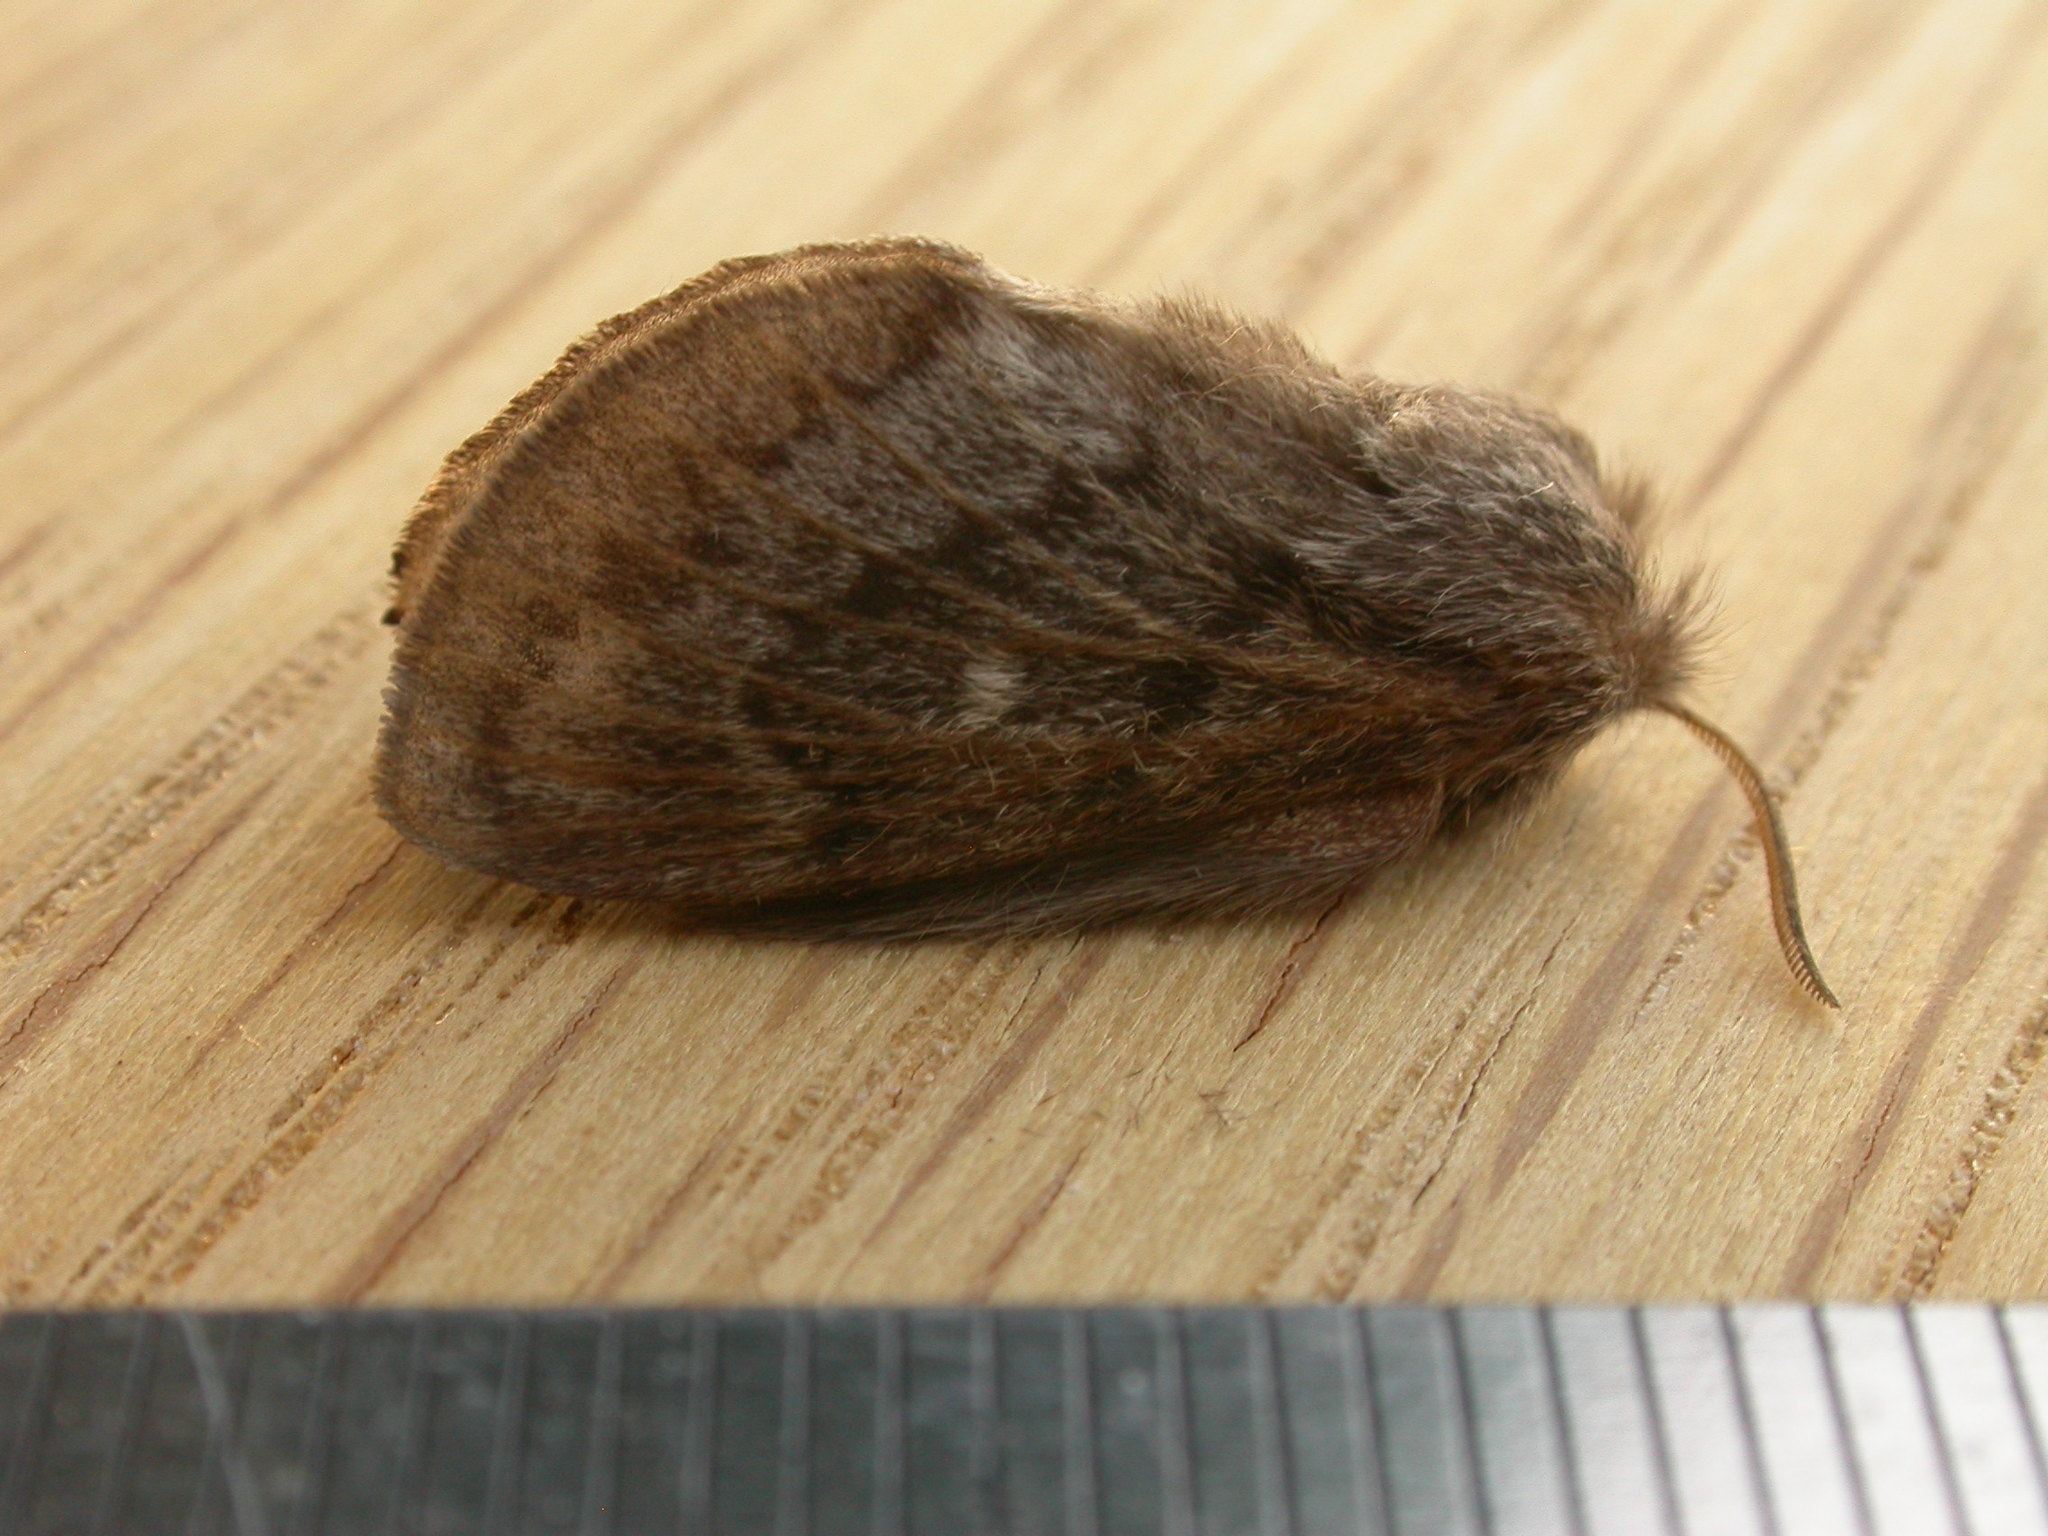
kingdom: Animalia
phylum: Arthropoda
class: Insecta
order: Lepidoptera
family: Lasiocampidae
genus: Pernattia
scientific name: Pernattia pusilla
